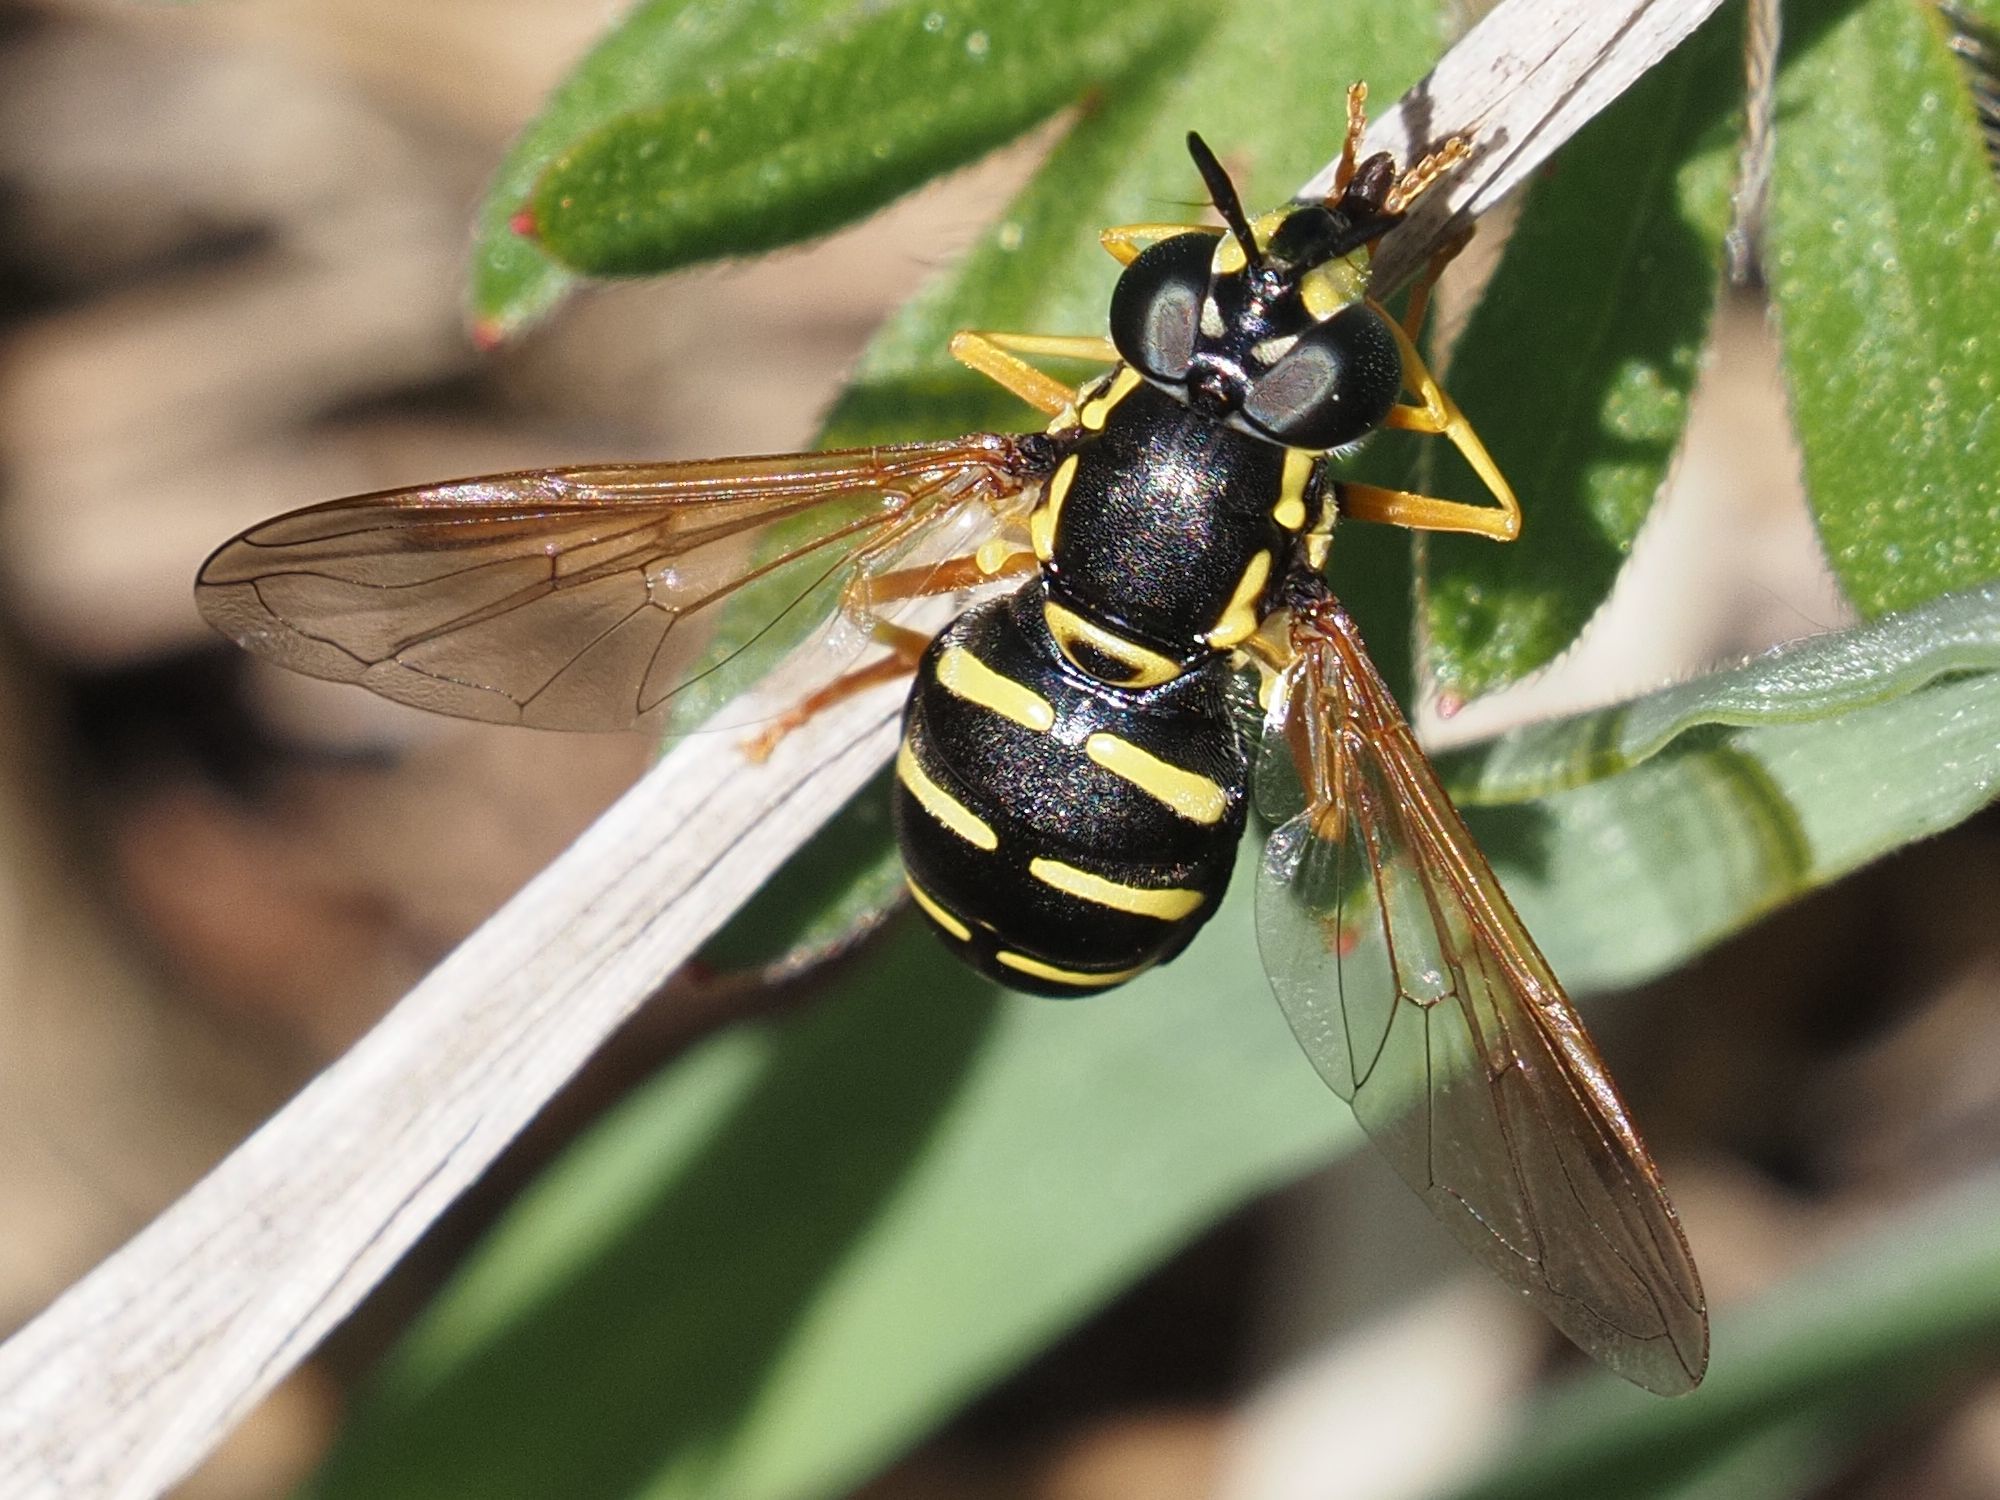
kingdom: Animalia
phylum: Arthropoda
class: Insecta
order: Diptera
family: Syrphidae
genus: Chrysotoxum
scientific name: Chrysotoxum festivum
